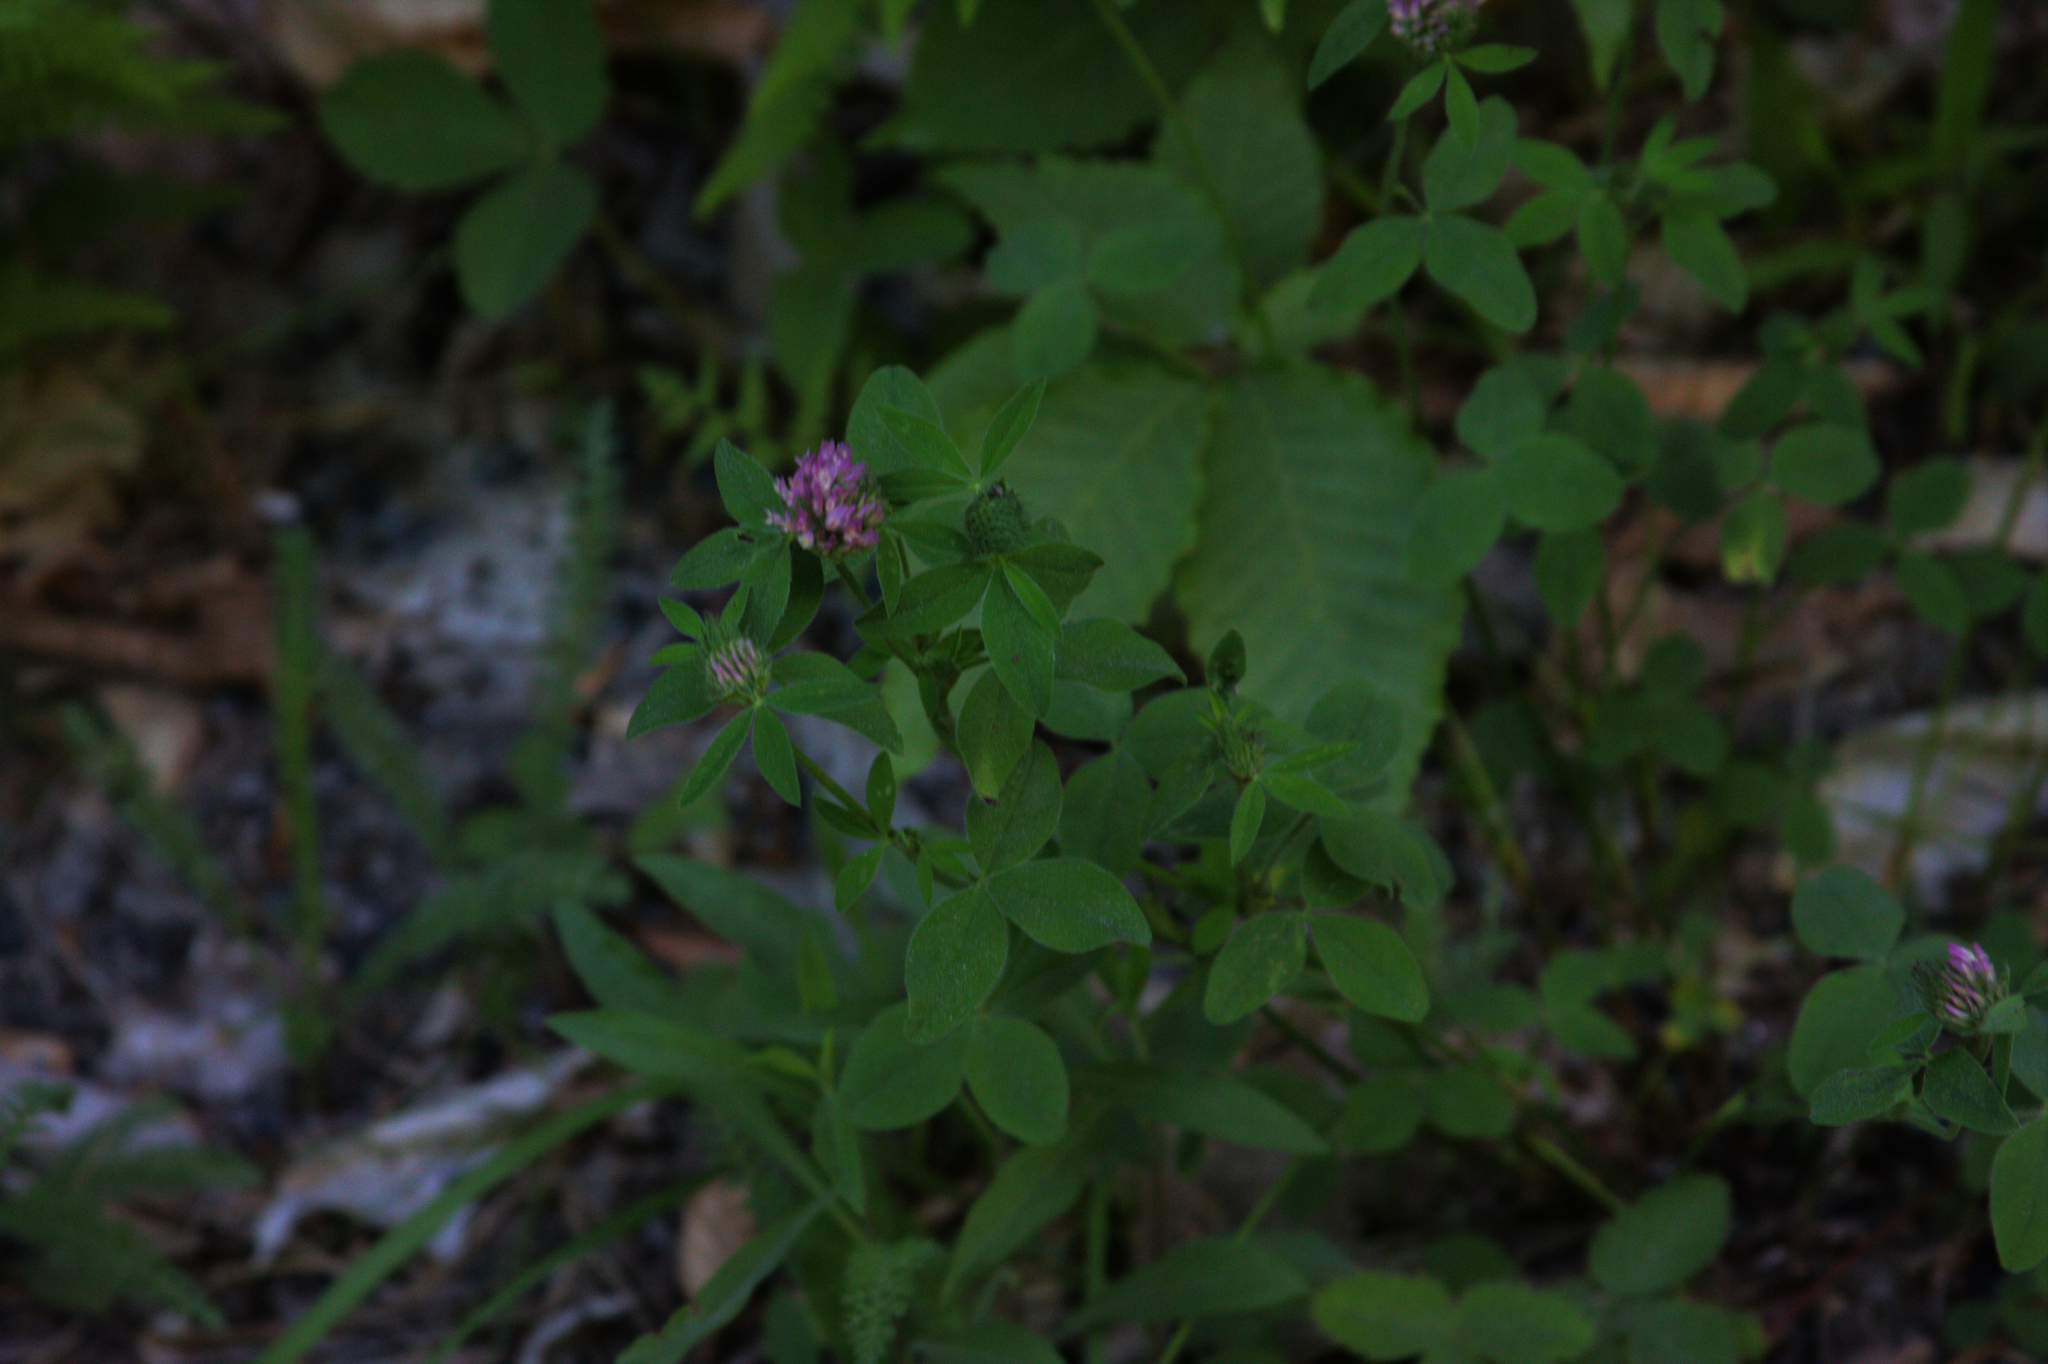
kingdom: Plantae
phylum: Tracheophyta
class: Magnoliopsida
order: Fabales
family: Fabaceae
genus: Trifolium
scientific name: Trifolium pratense
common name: Red clover
